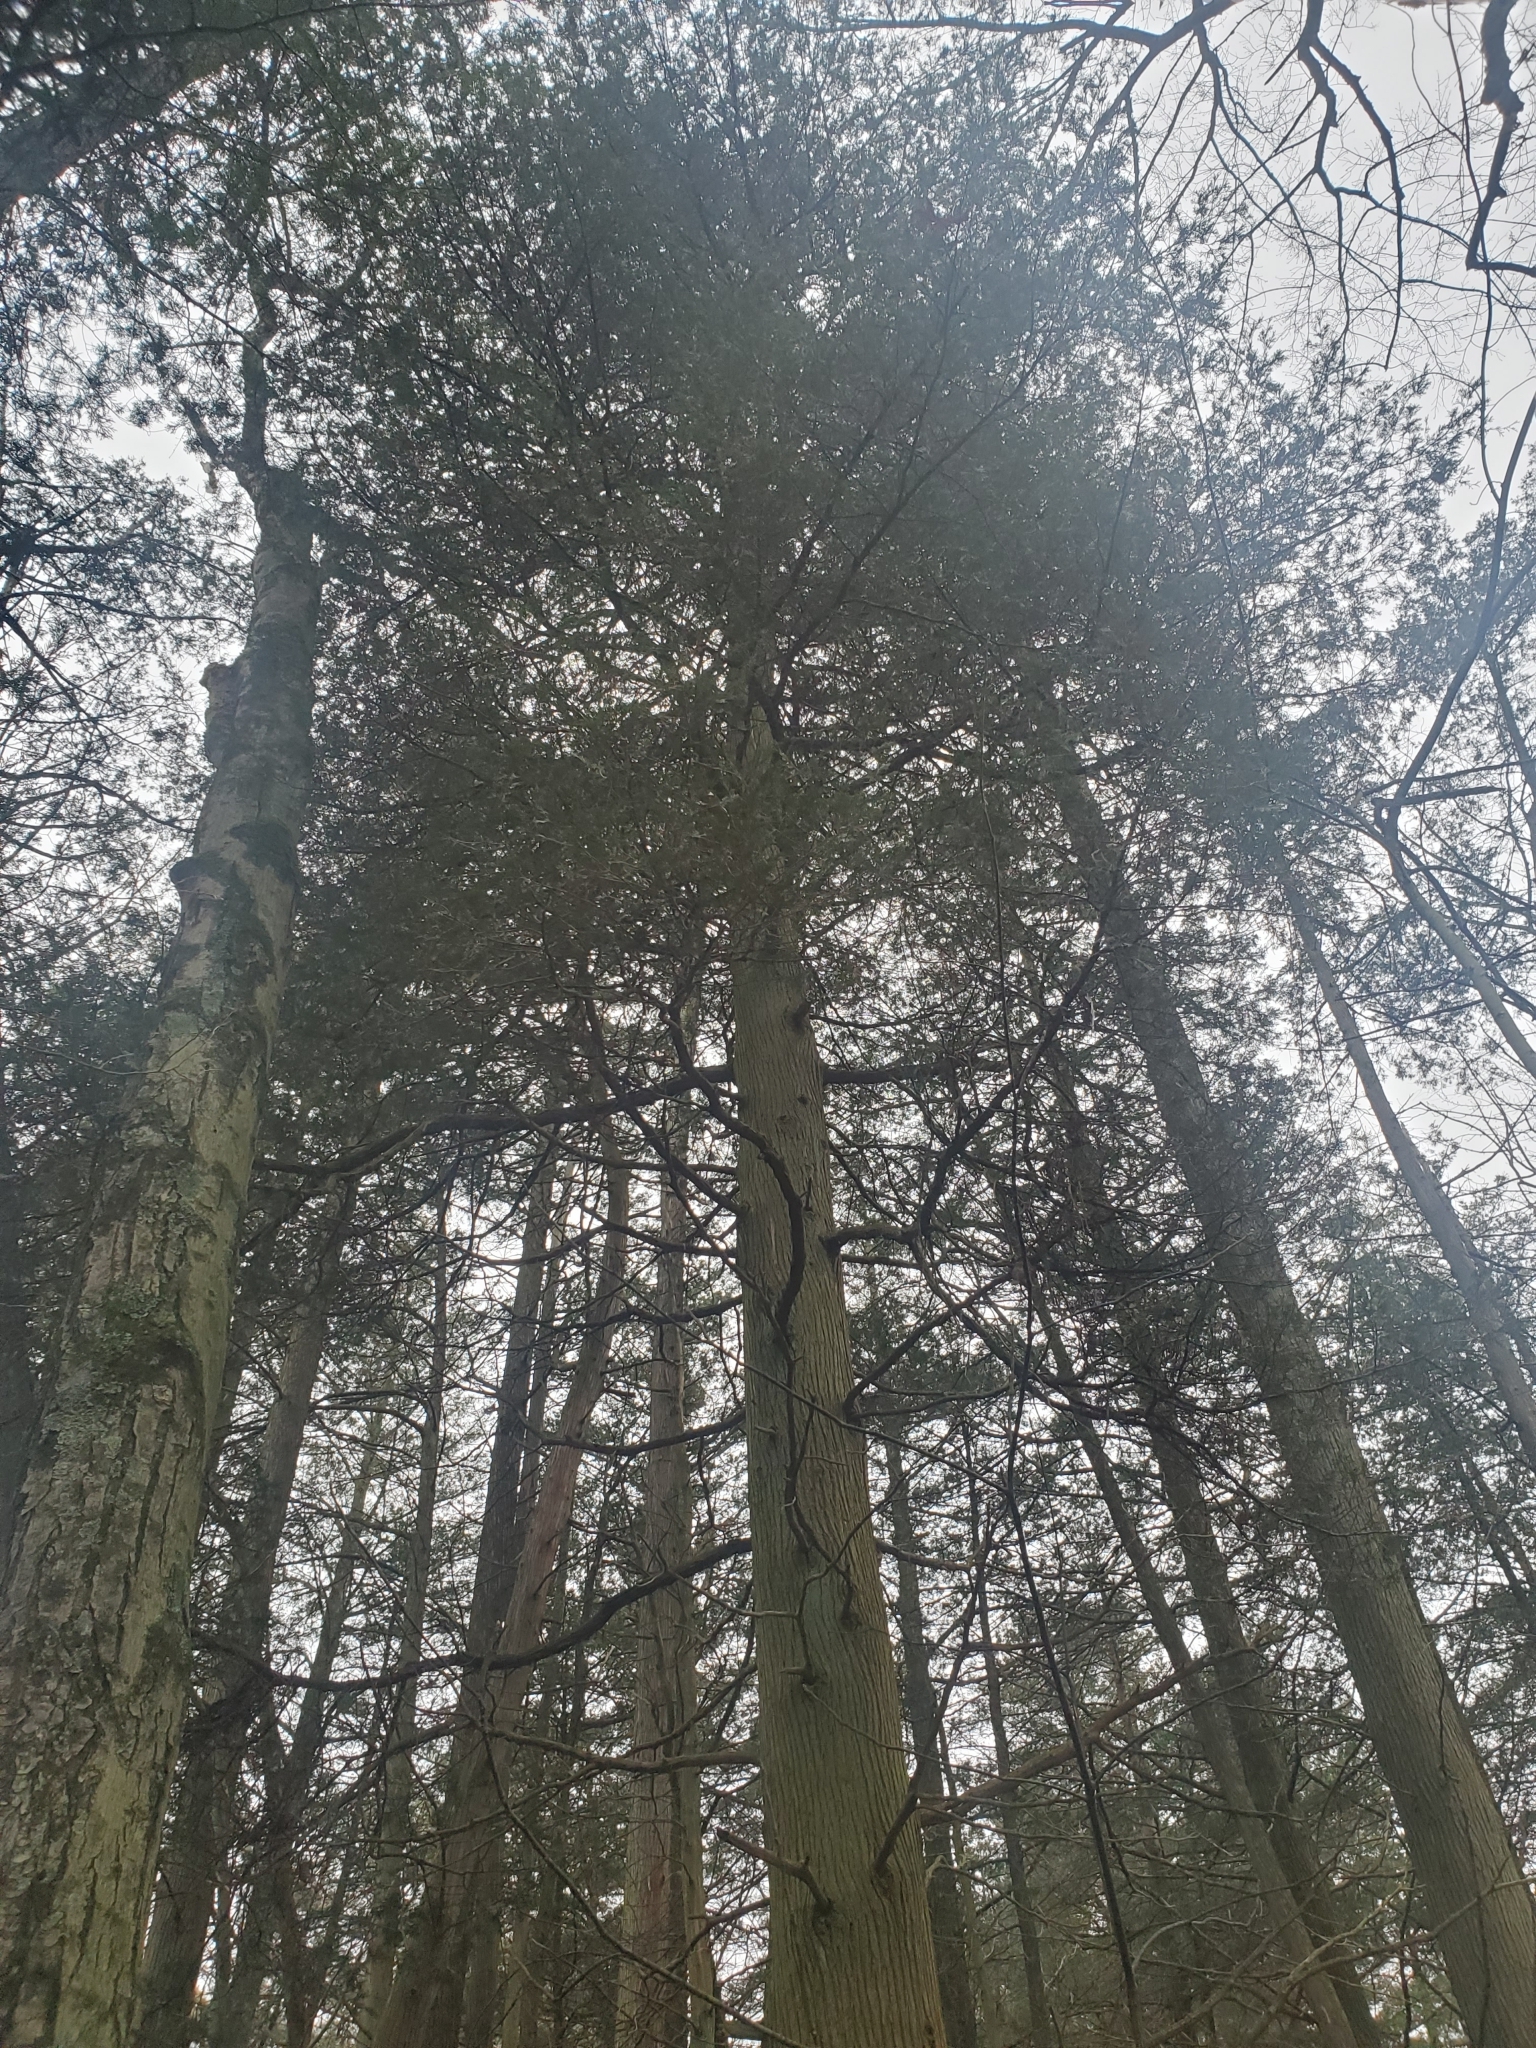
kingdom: Plantae
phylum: Tracheophyta
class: Pinopsida
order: Pinales
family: Cupressaceae
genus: Chamaecyparis
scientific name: Chamaecyparis thyoides
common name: Atlantic white cedar
